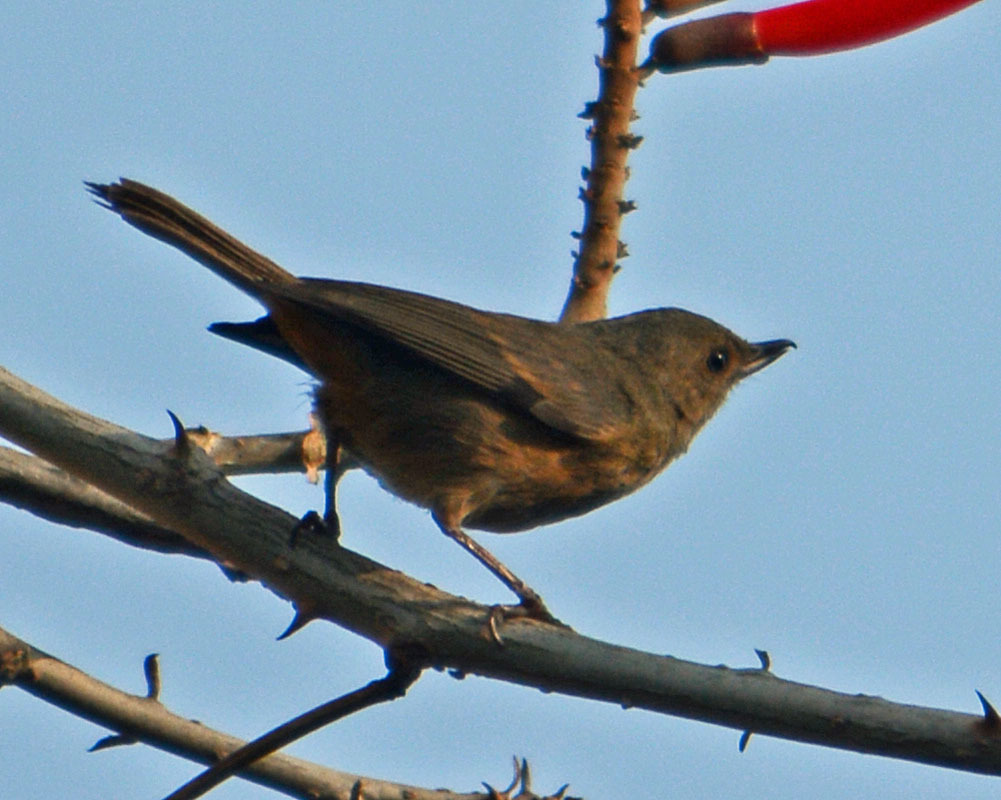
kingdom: Animalia
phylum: Chordata
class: Aves
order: Passeriformes
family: Thraupidae
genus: Diglossa
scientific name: Diglossa baritula
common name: Cinnamon-bellied flowerpiercer
